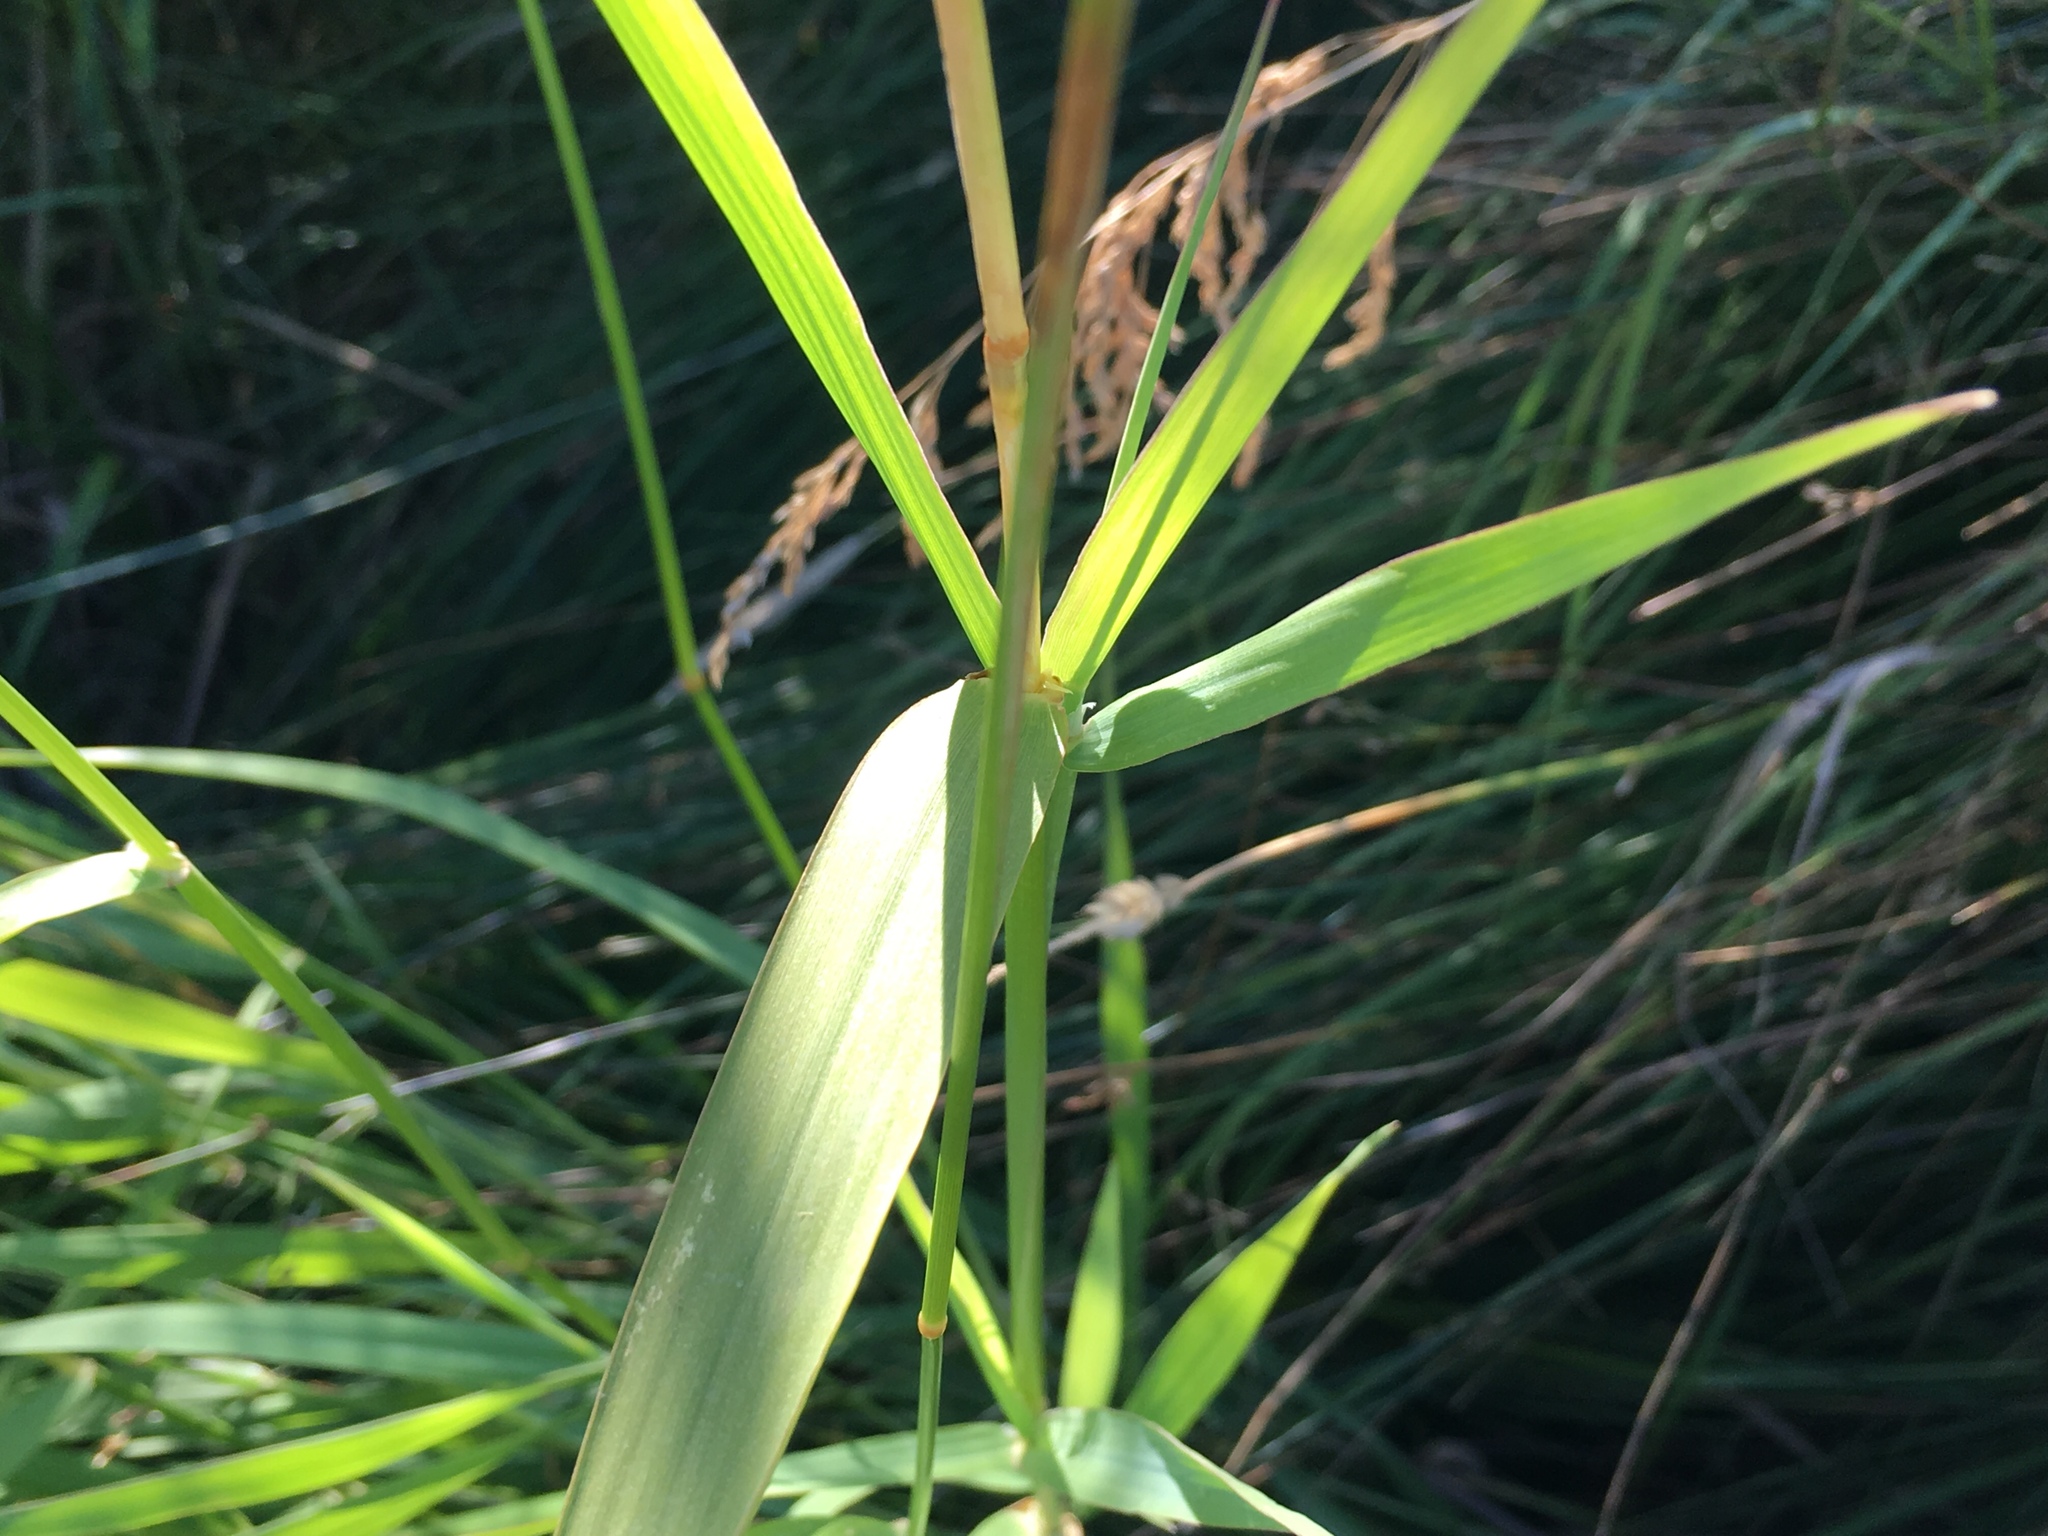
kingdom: Plantae
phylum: Tracheophyta
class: Liliopsida
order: Poales
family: Poaceae
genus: Phalaris
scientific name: Phalaris arundinacea
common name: Reed canary-grass
